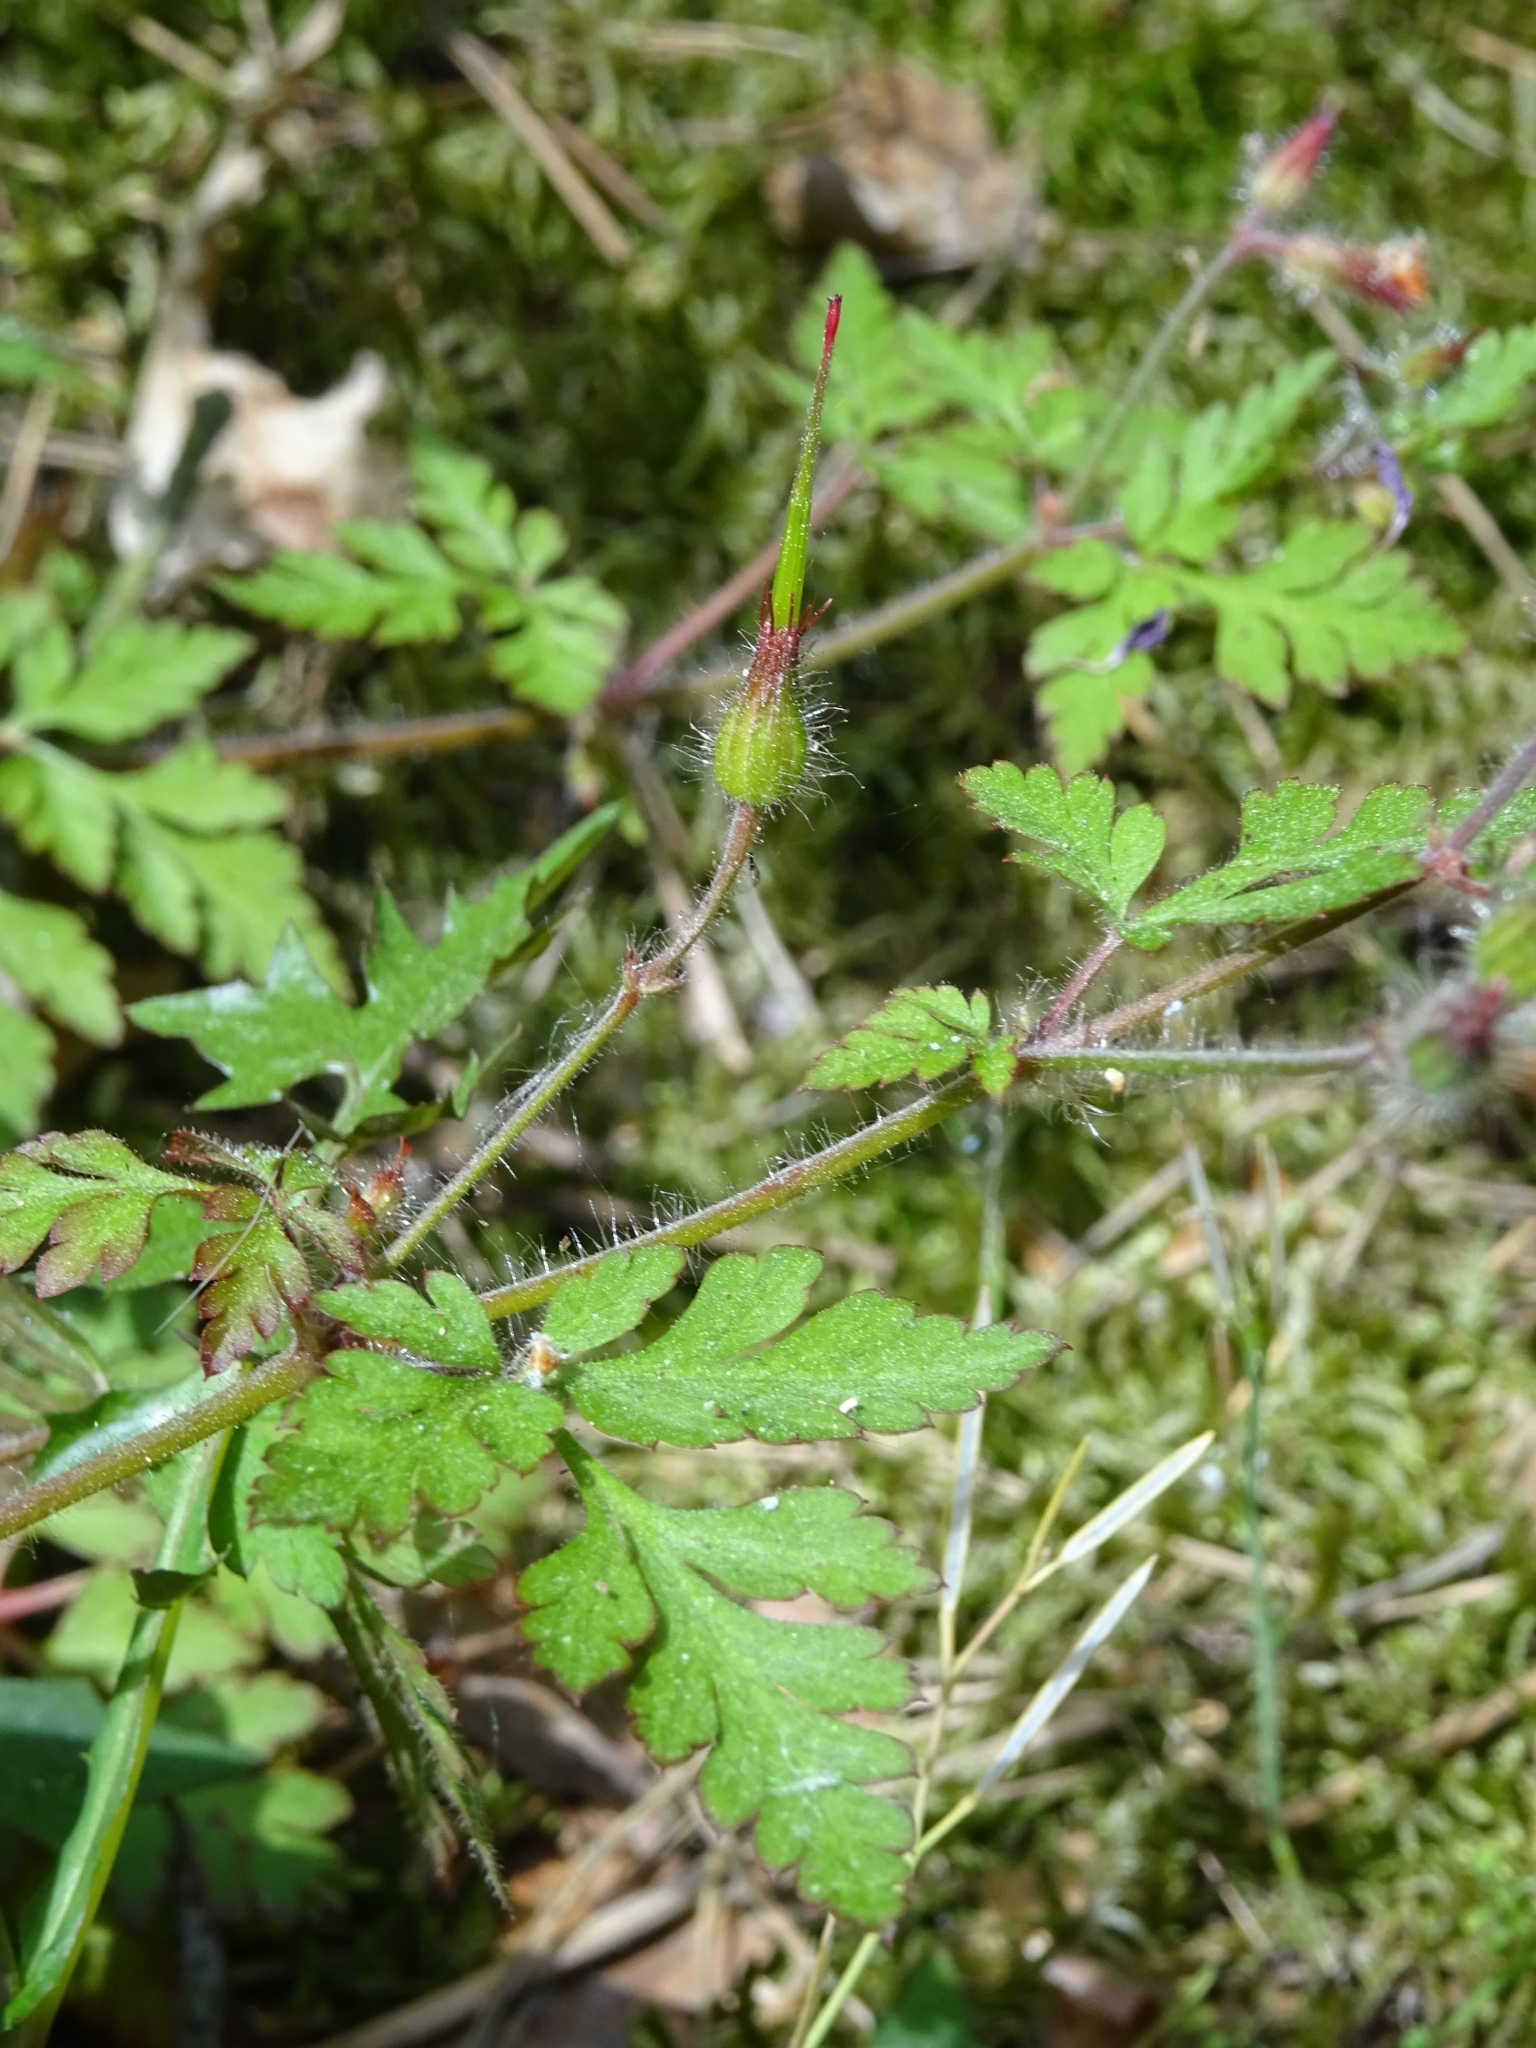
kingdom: Plantae
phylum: Tracheophyta
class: Magnoliopsida
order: Geraniales
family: Geraniaceae
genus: Geranium
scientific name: Geranium robertianum
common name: Herb-robert
